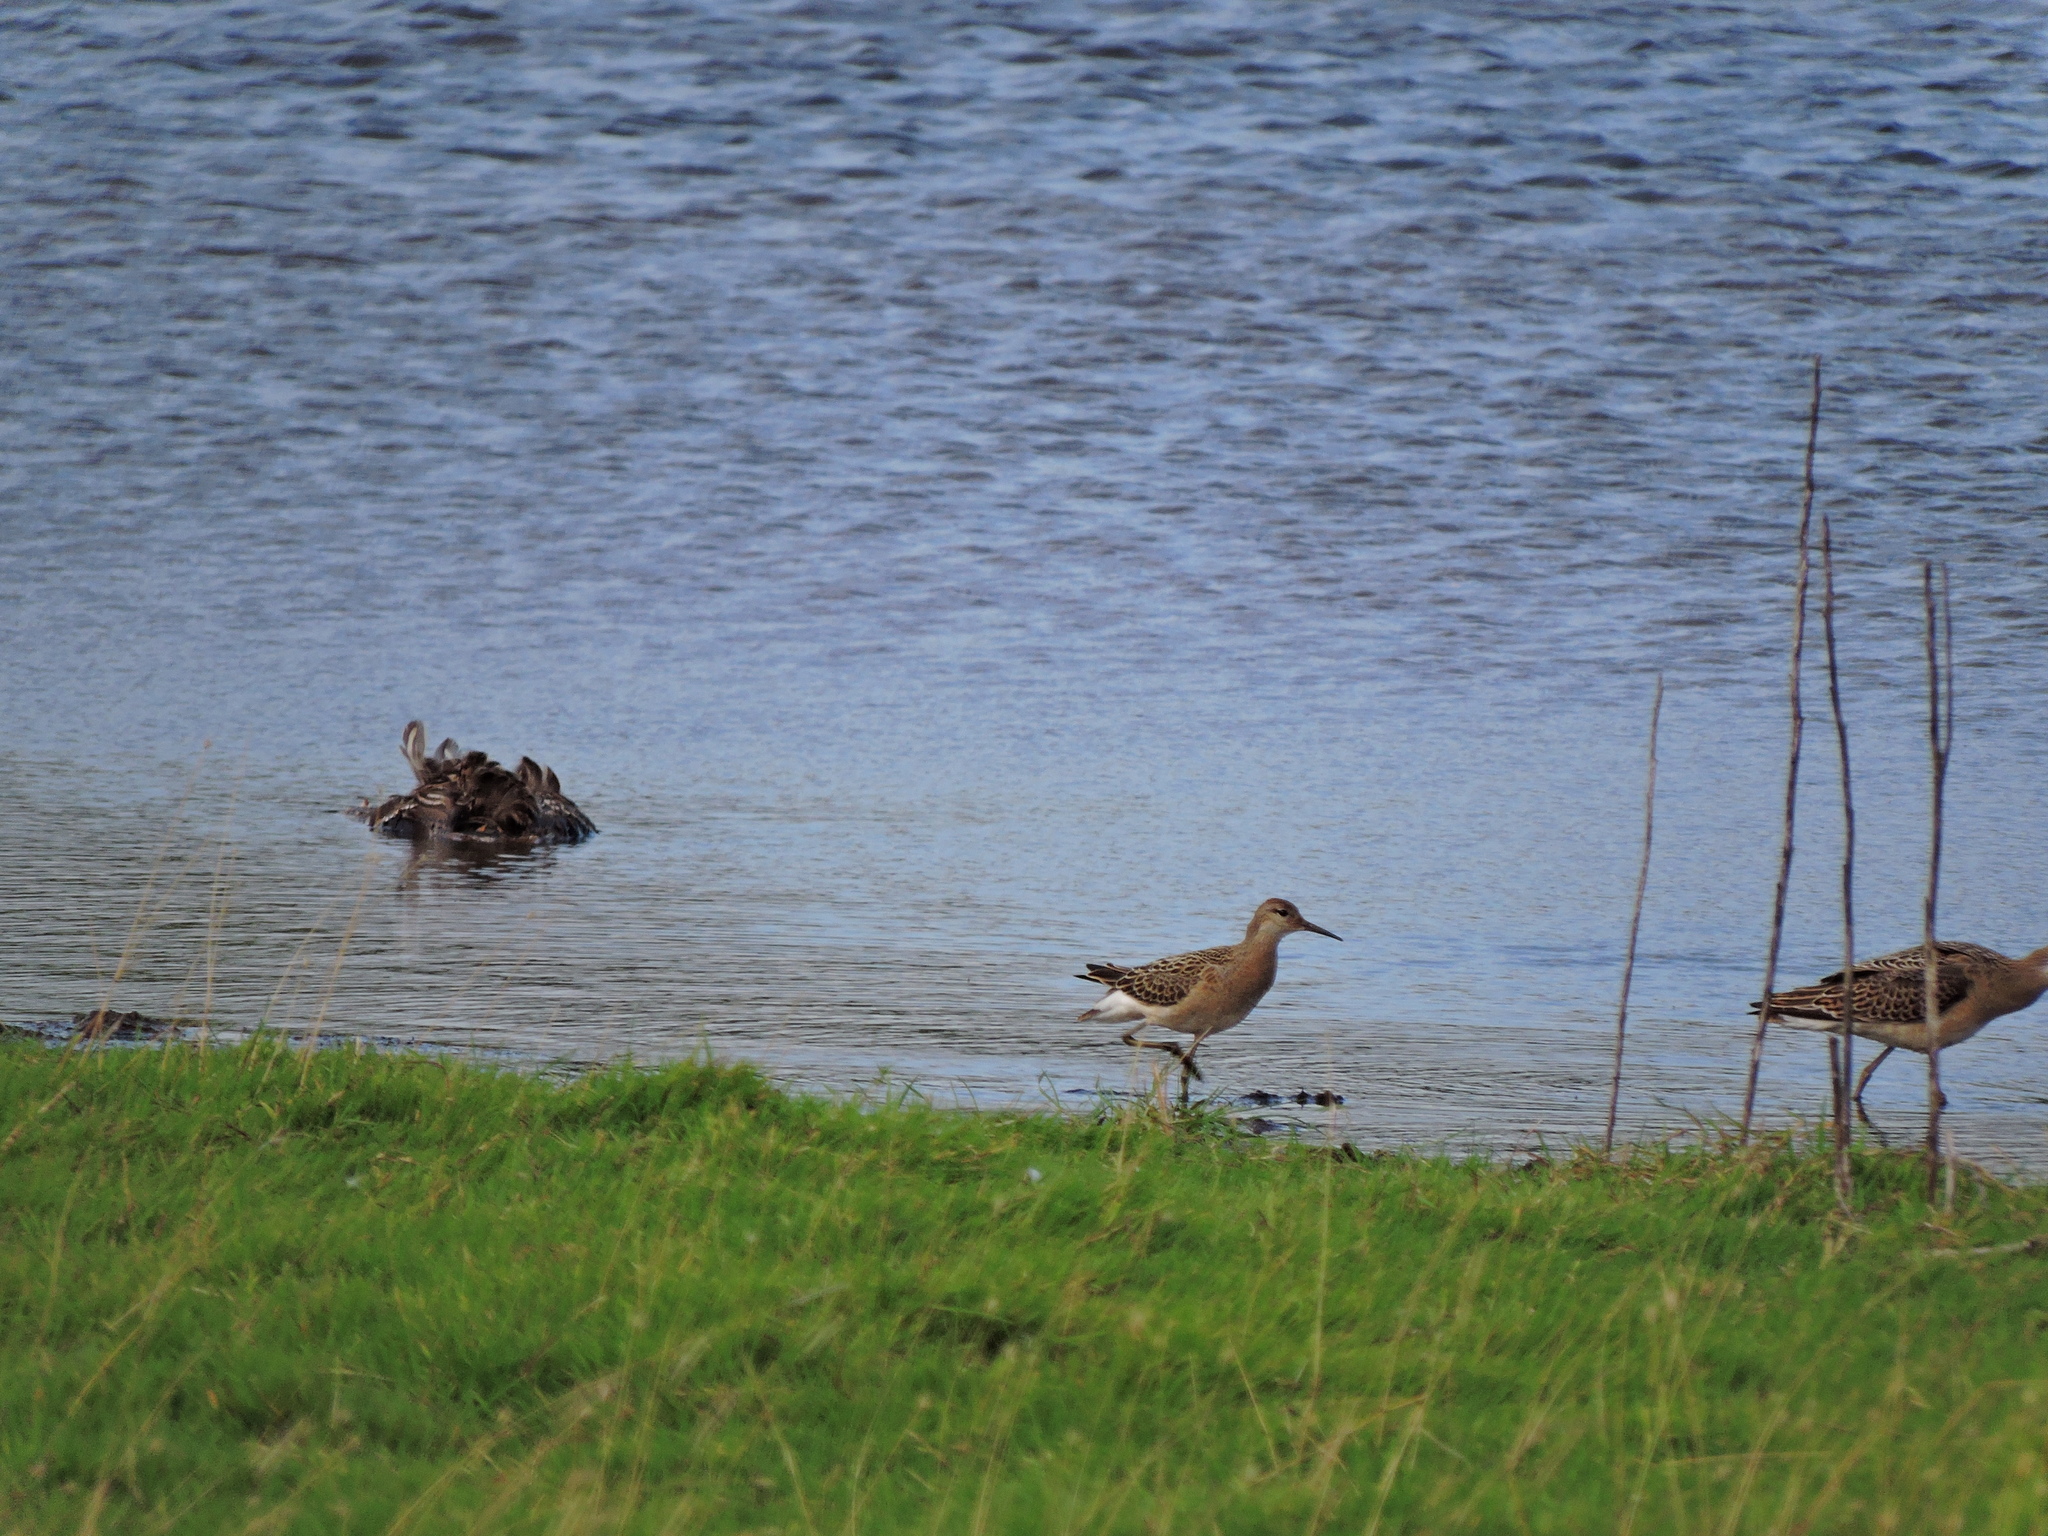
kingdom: Animalia
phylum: Chordata
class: Aves
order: Charadriiformes
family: Scolopacidae
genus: Calidris
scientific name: Calidris pugnax
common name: Ruff
